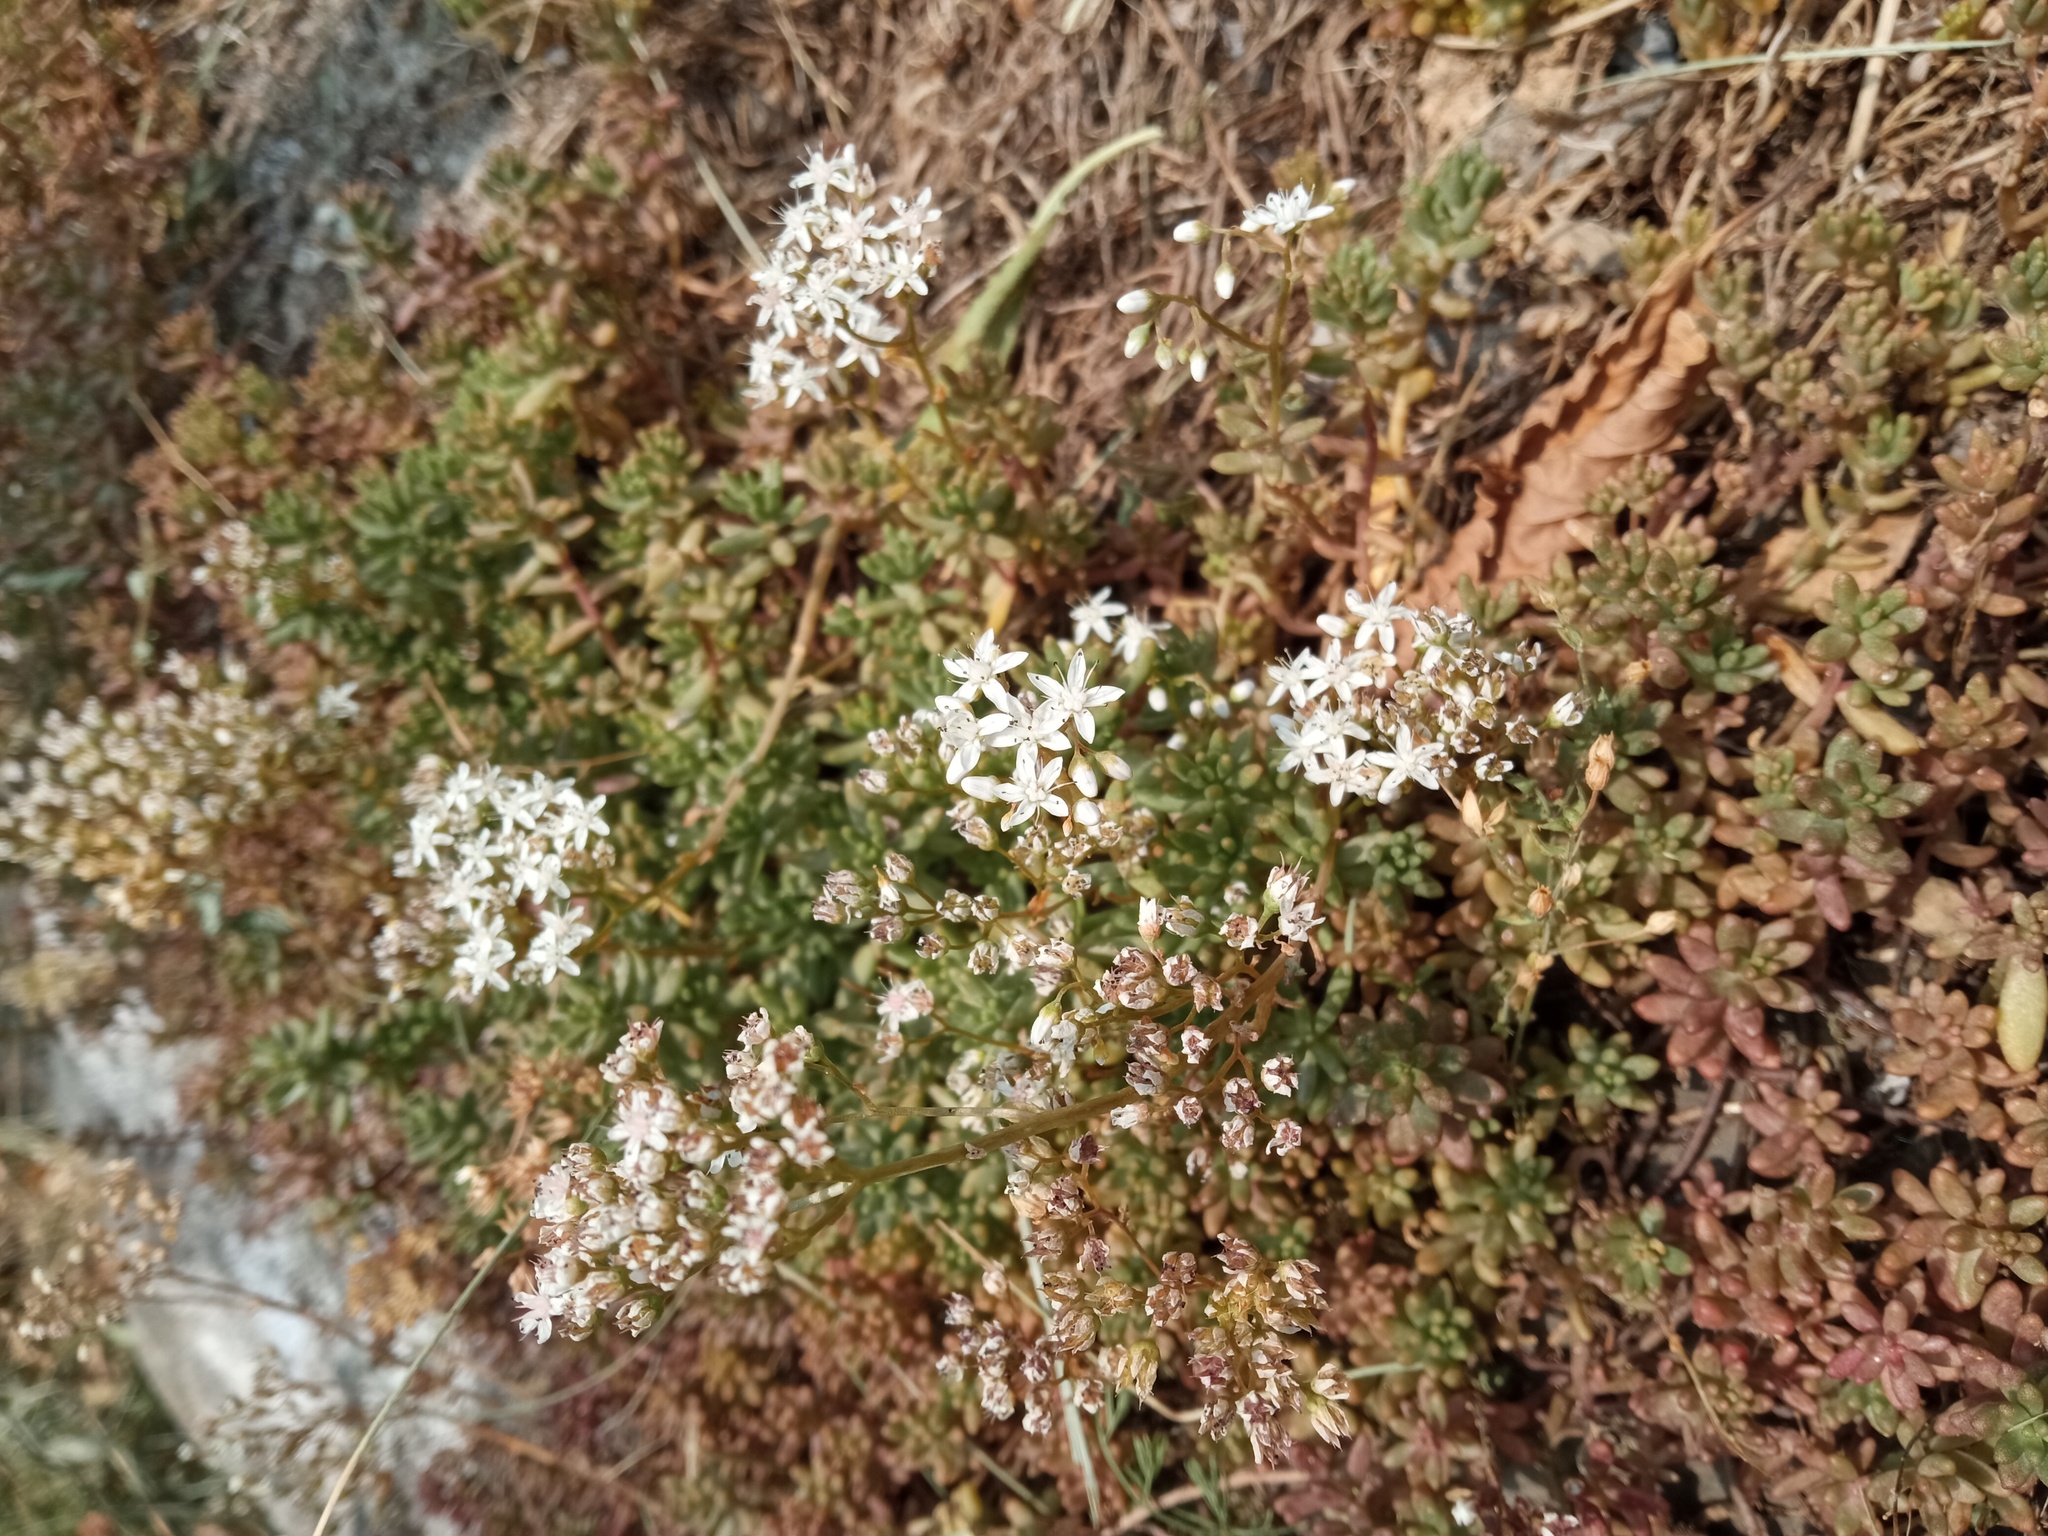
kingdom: Plantae
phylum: Tracheophyta
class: Magnoliopsida
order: Saxifragales
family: Crassulaceae
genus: Sedum
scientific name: Sedum album
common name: White stonecrop
